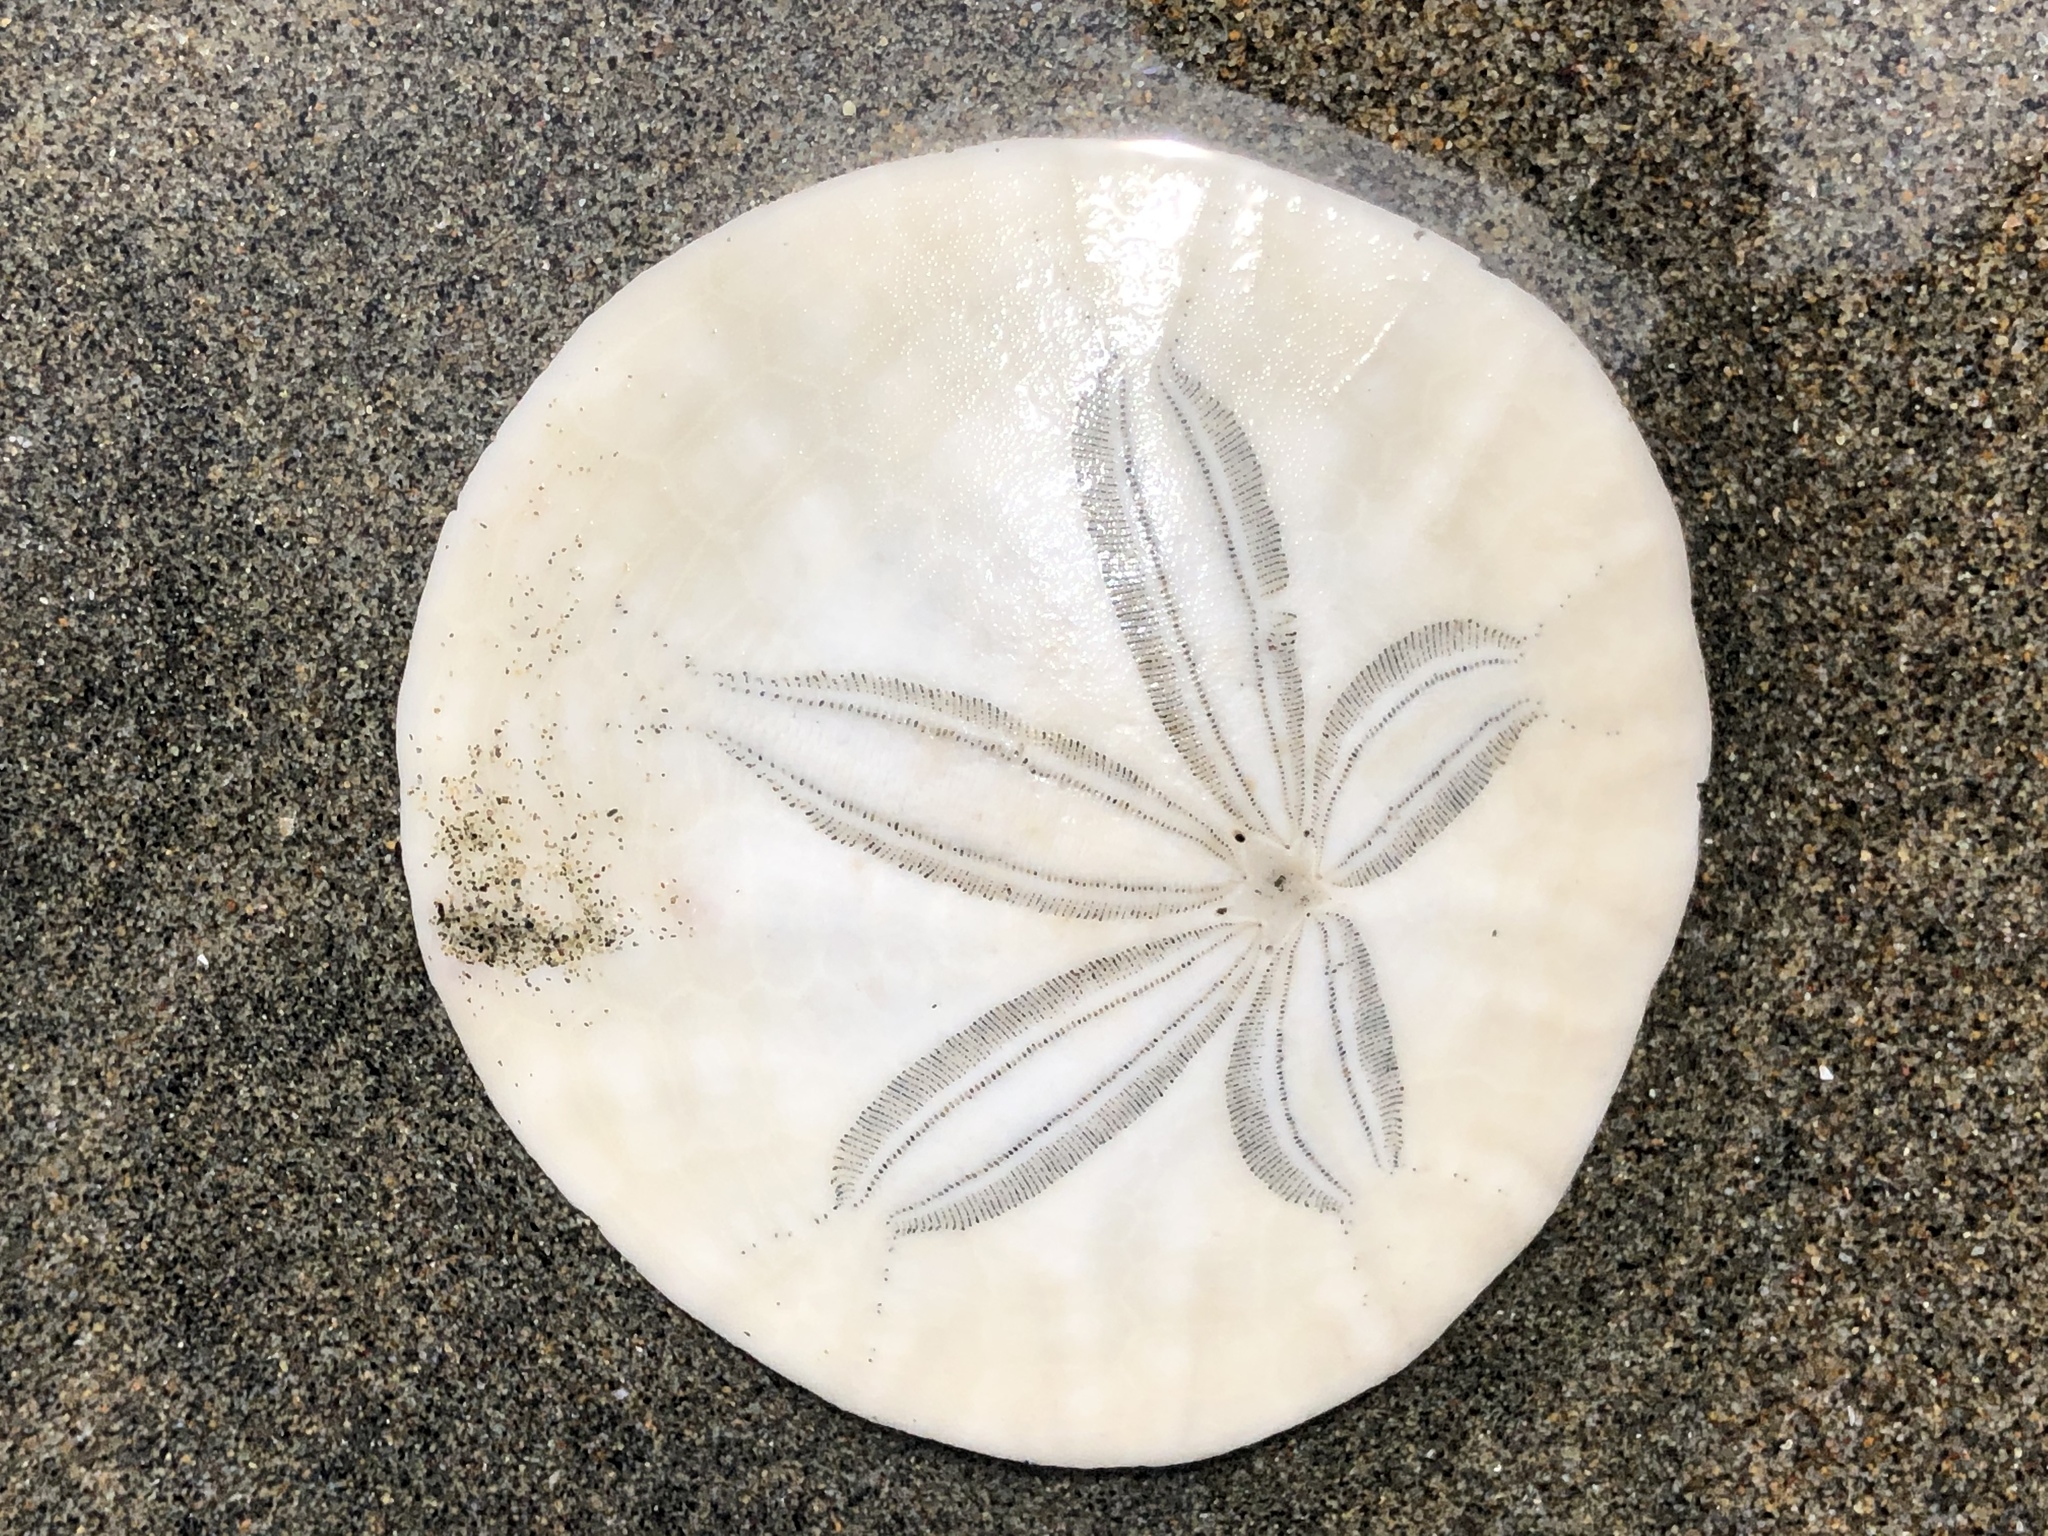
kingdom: Animalia
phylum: Echinodermata
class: Echinoidea
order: Echinolampadacea
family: Dendrasteridae
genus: Dendraster
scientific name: Dendraster excentricus
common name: Eccentric sand dollar sea urchin
